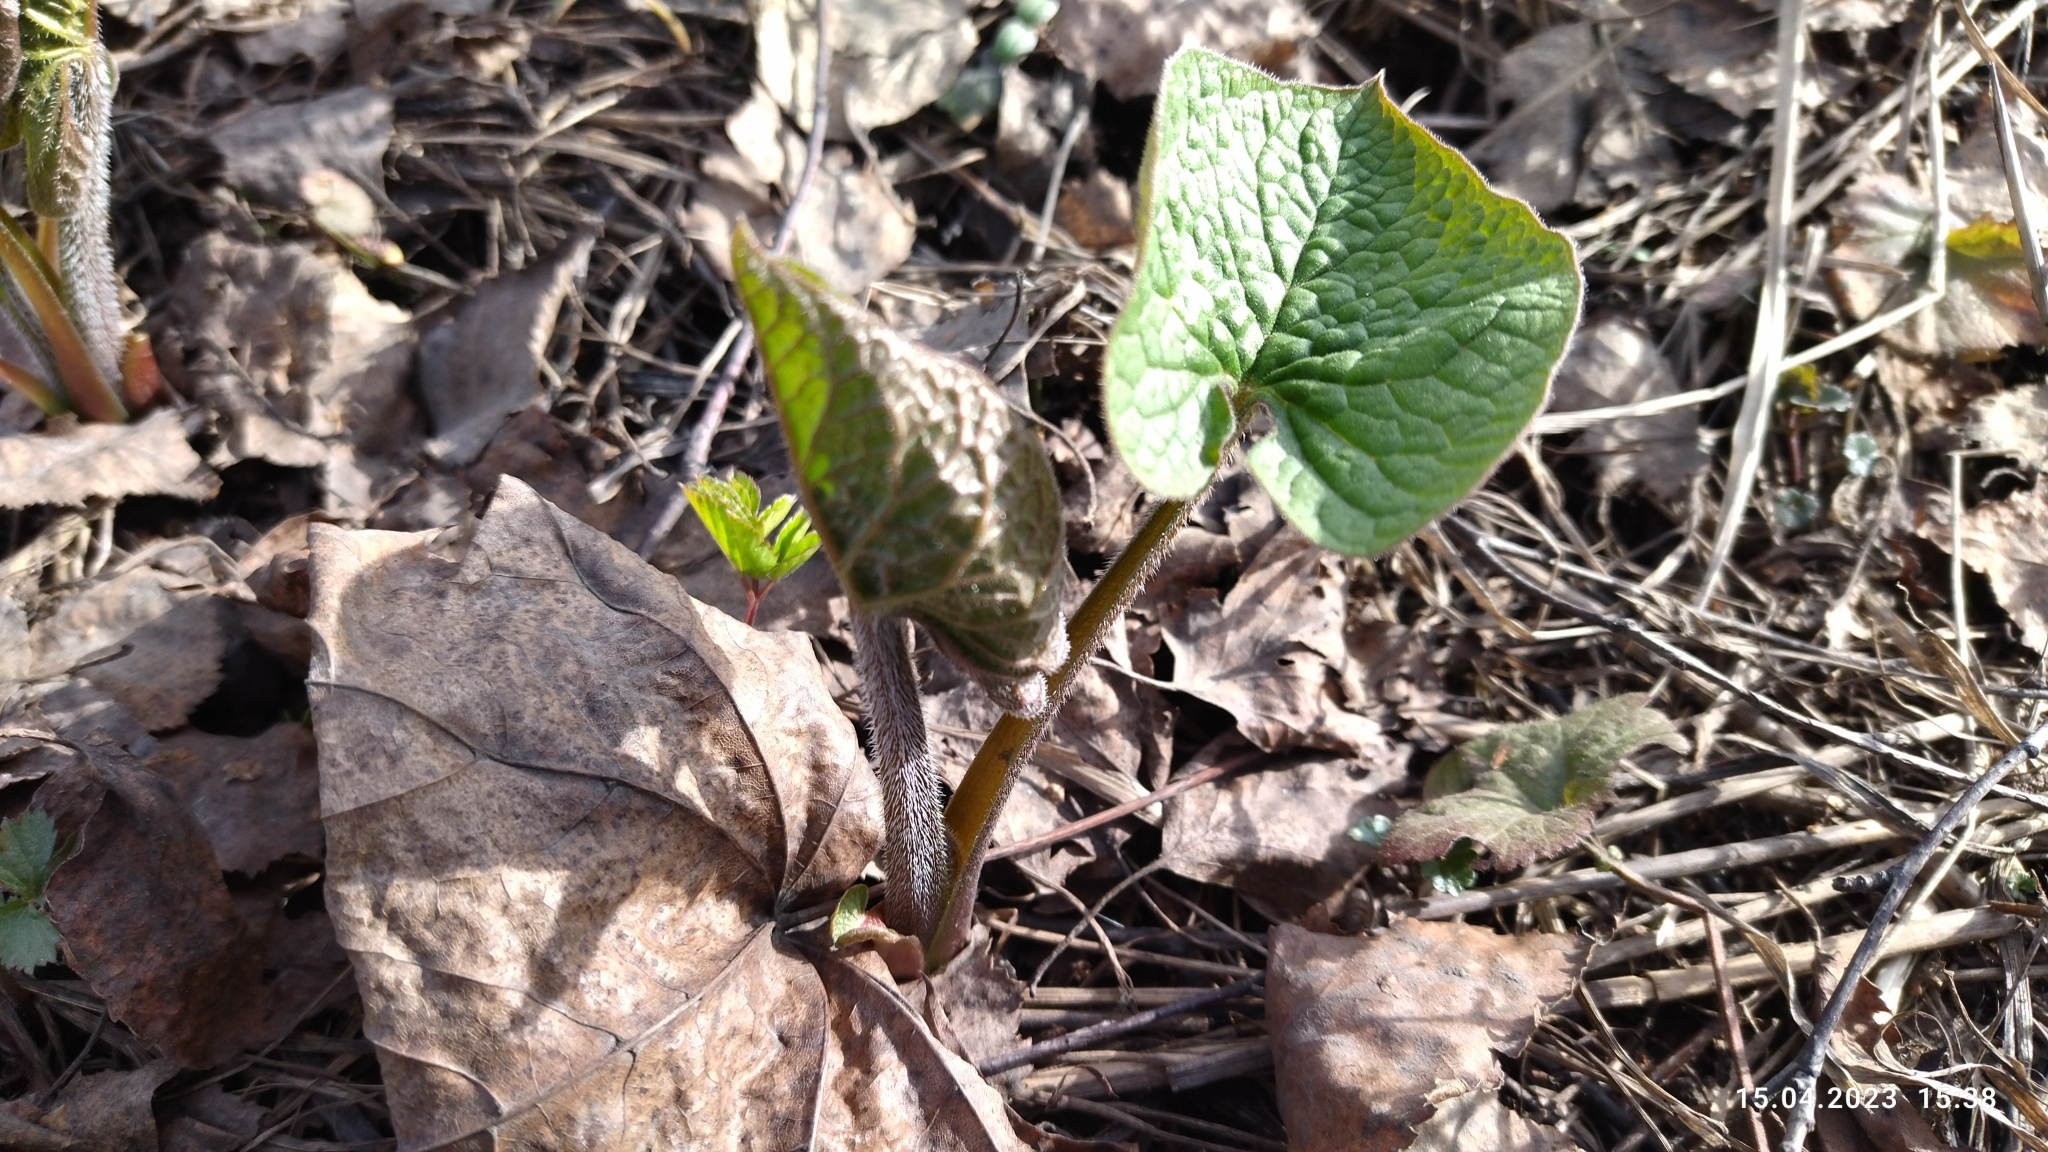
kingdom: Plantae
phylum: Tracheophyta
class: Magnoliopsida
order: Boraginales
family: Boraginaceae
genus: Brunnera
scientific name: Brunnera sibirica
